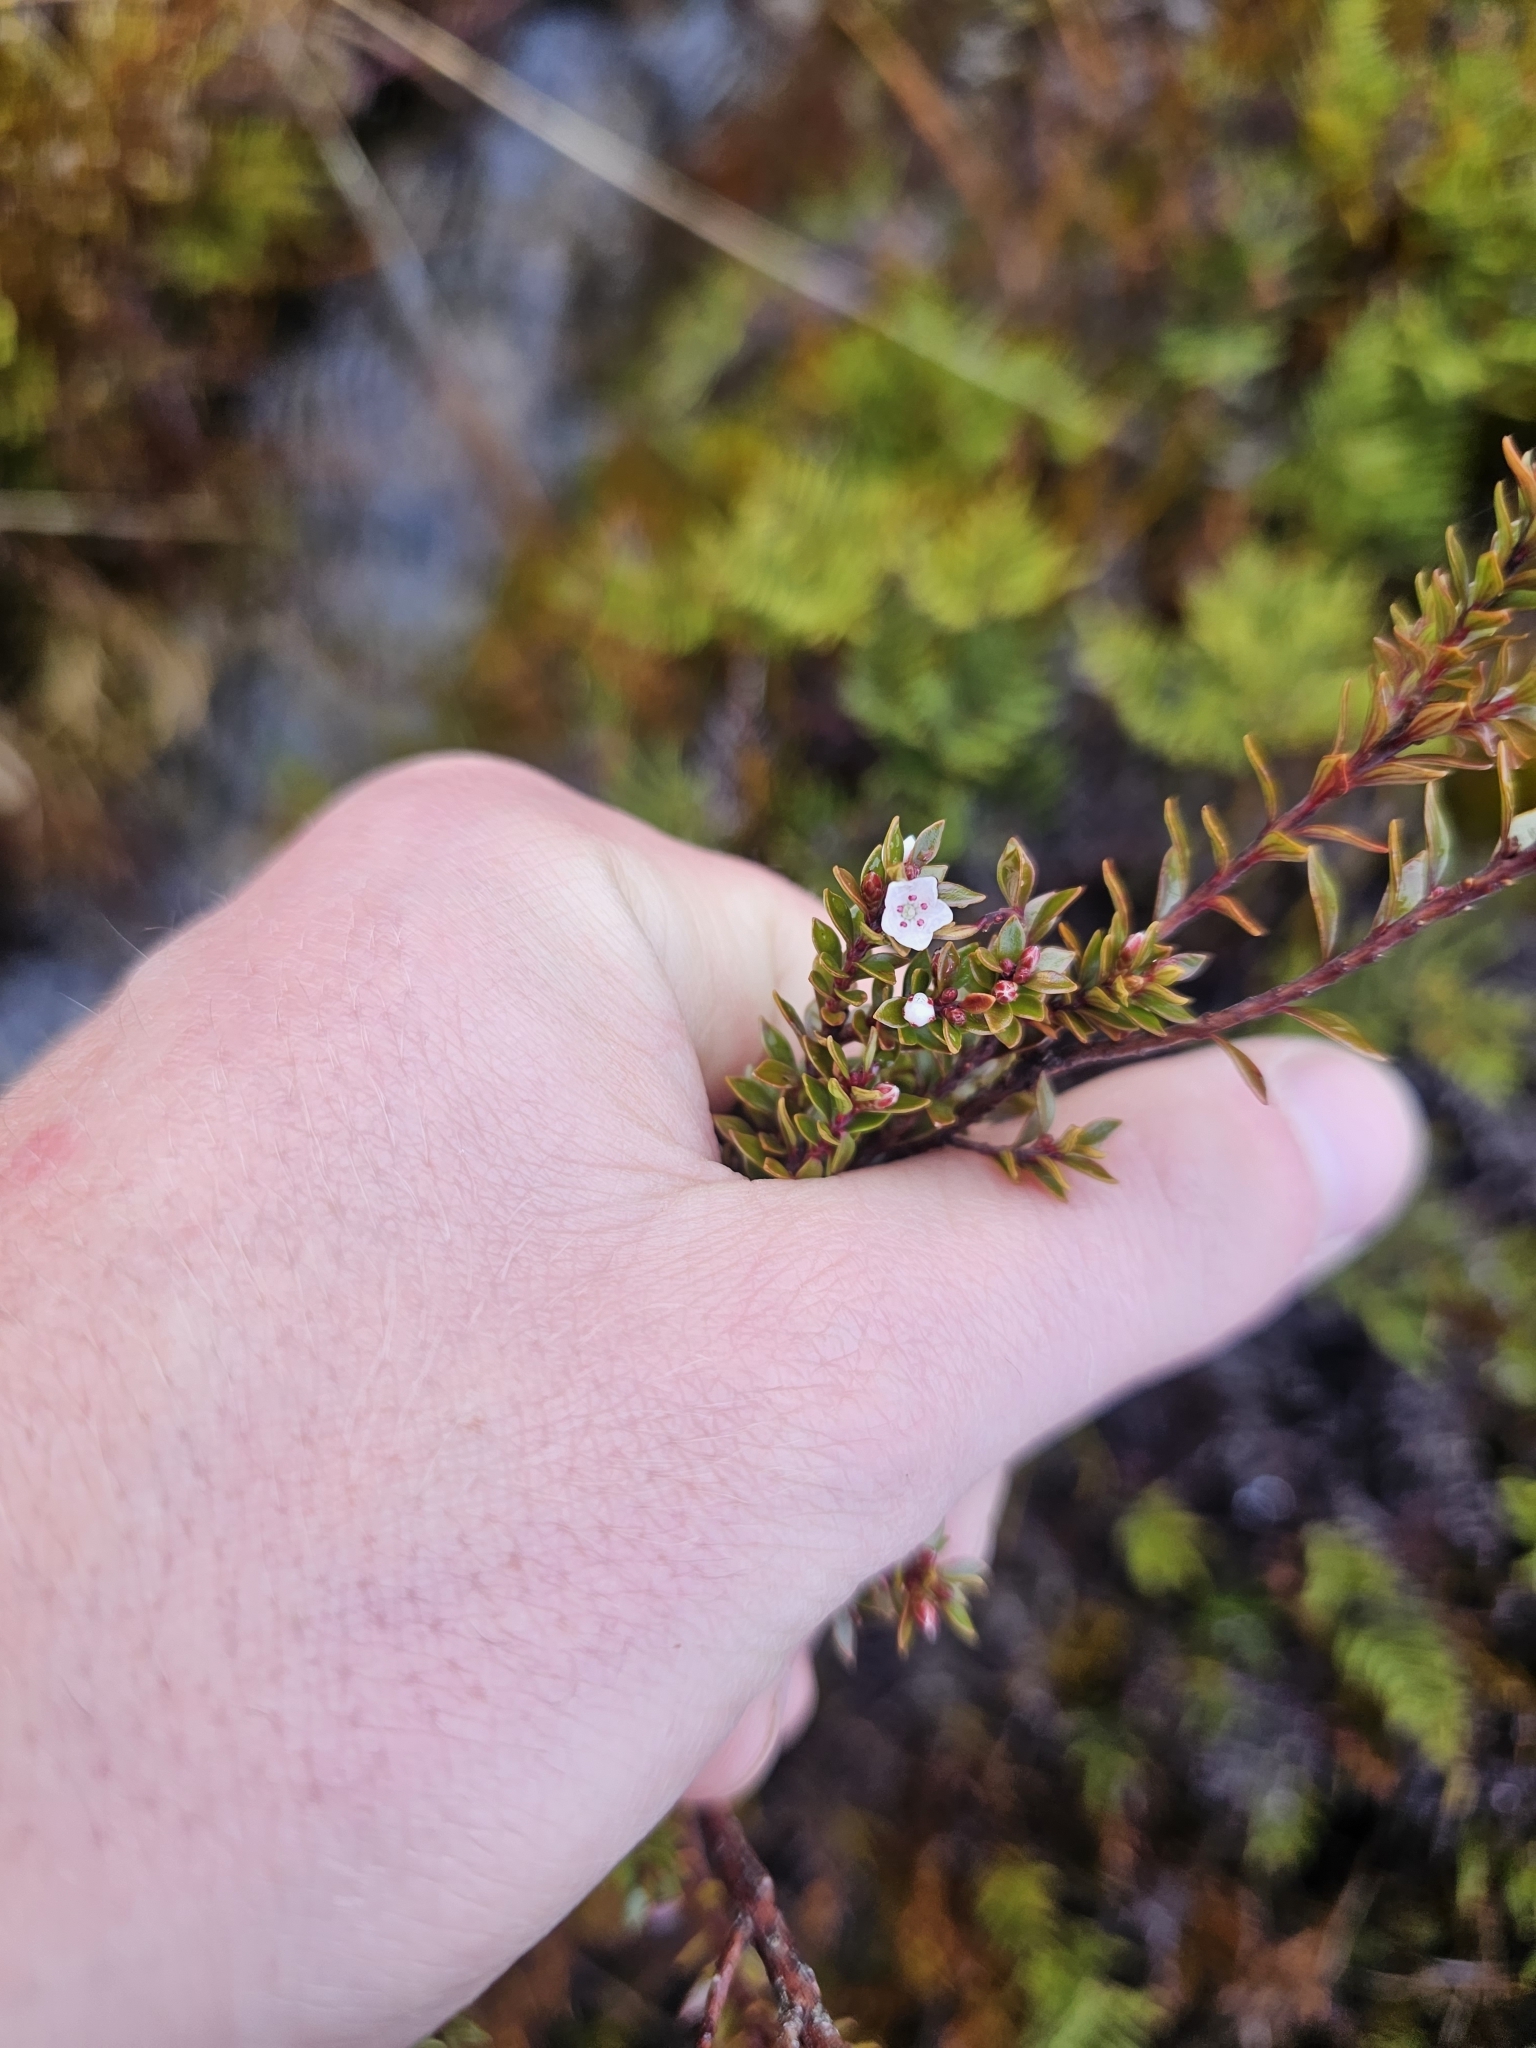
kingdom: Plantae
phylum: Tracheophyta
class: Magnoliopsida
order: Ericales
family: Ericaceae
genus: Epacris
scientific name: Epacris pauciflora
